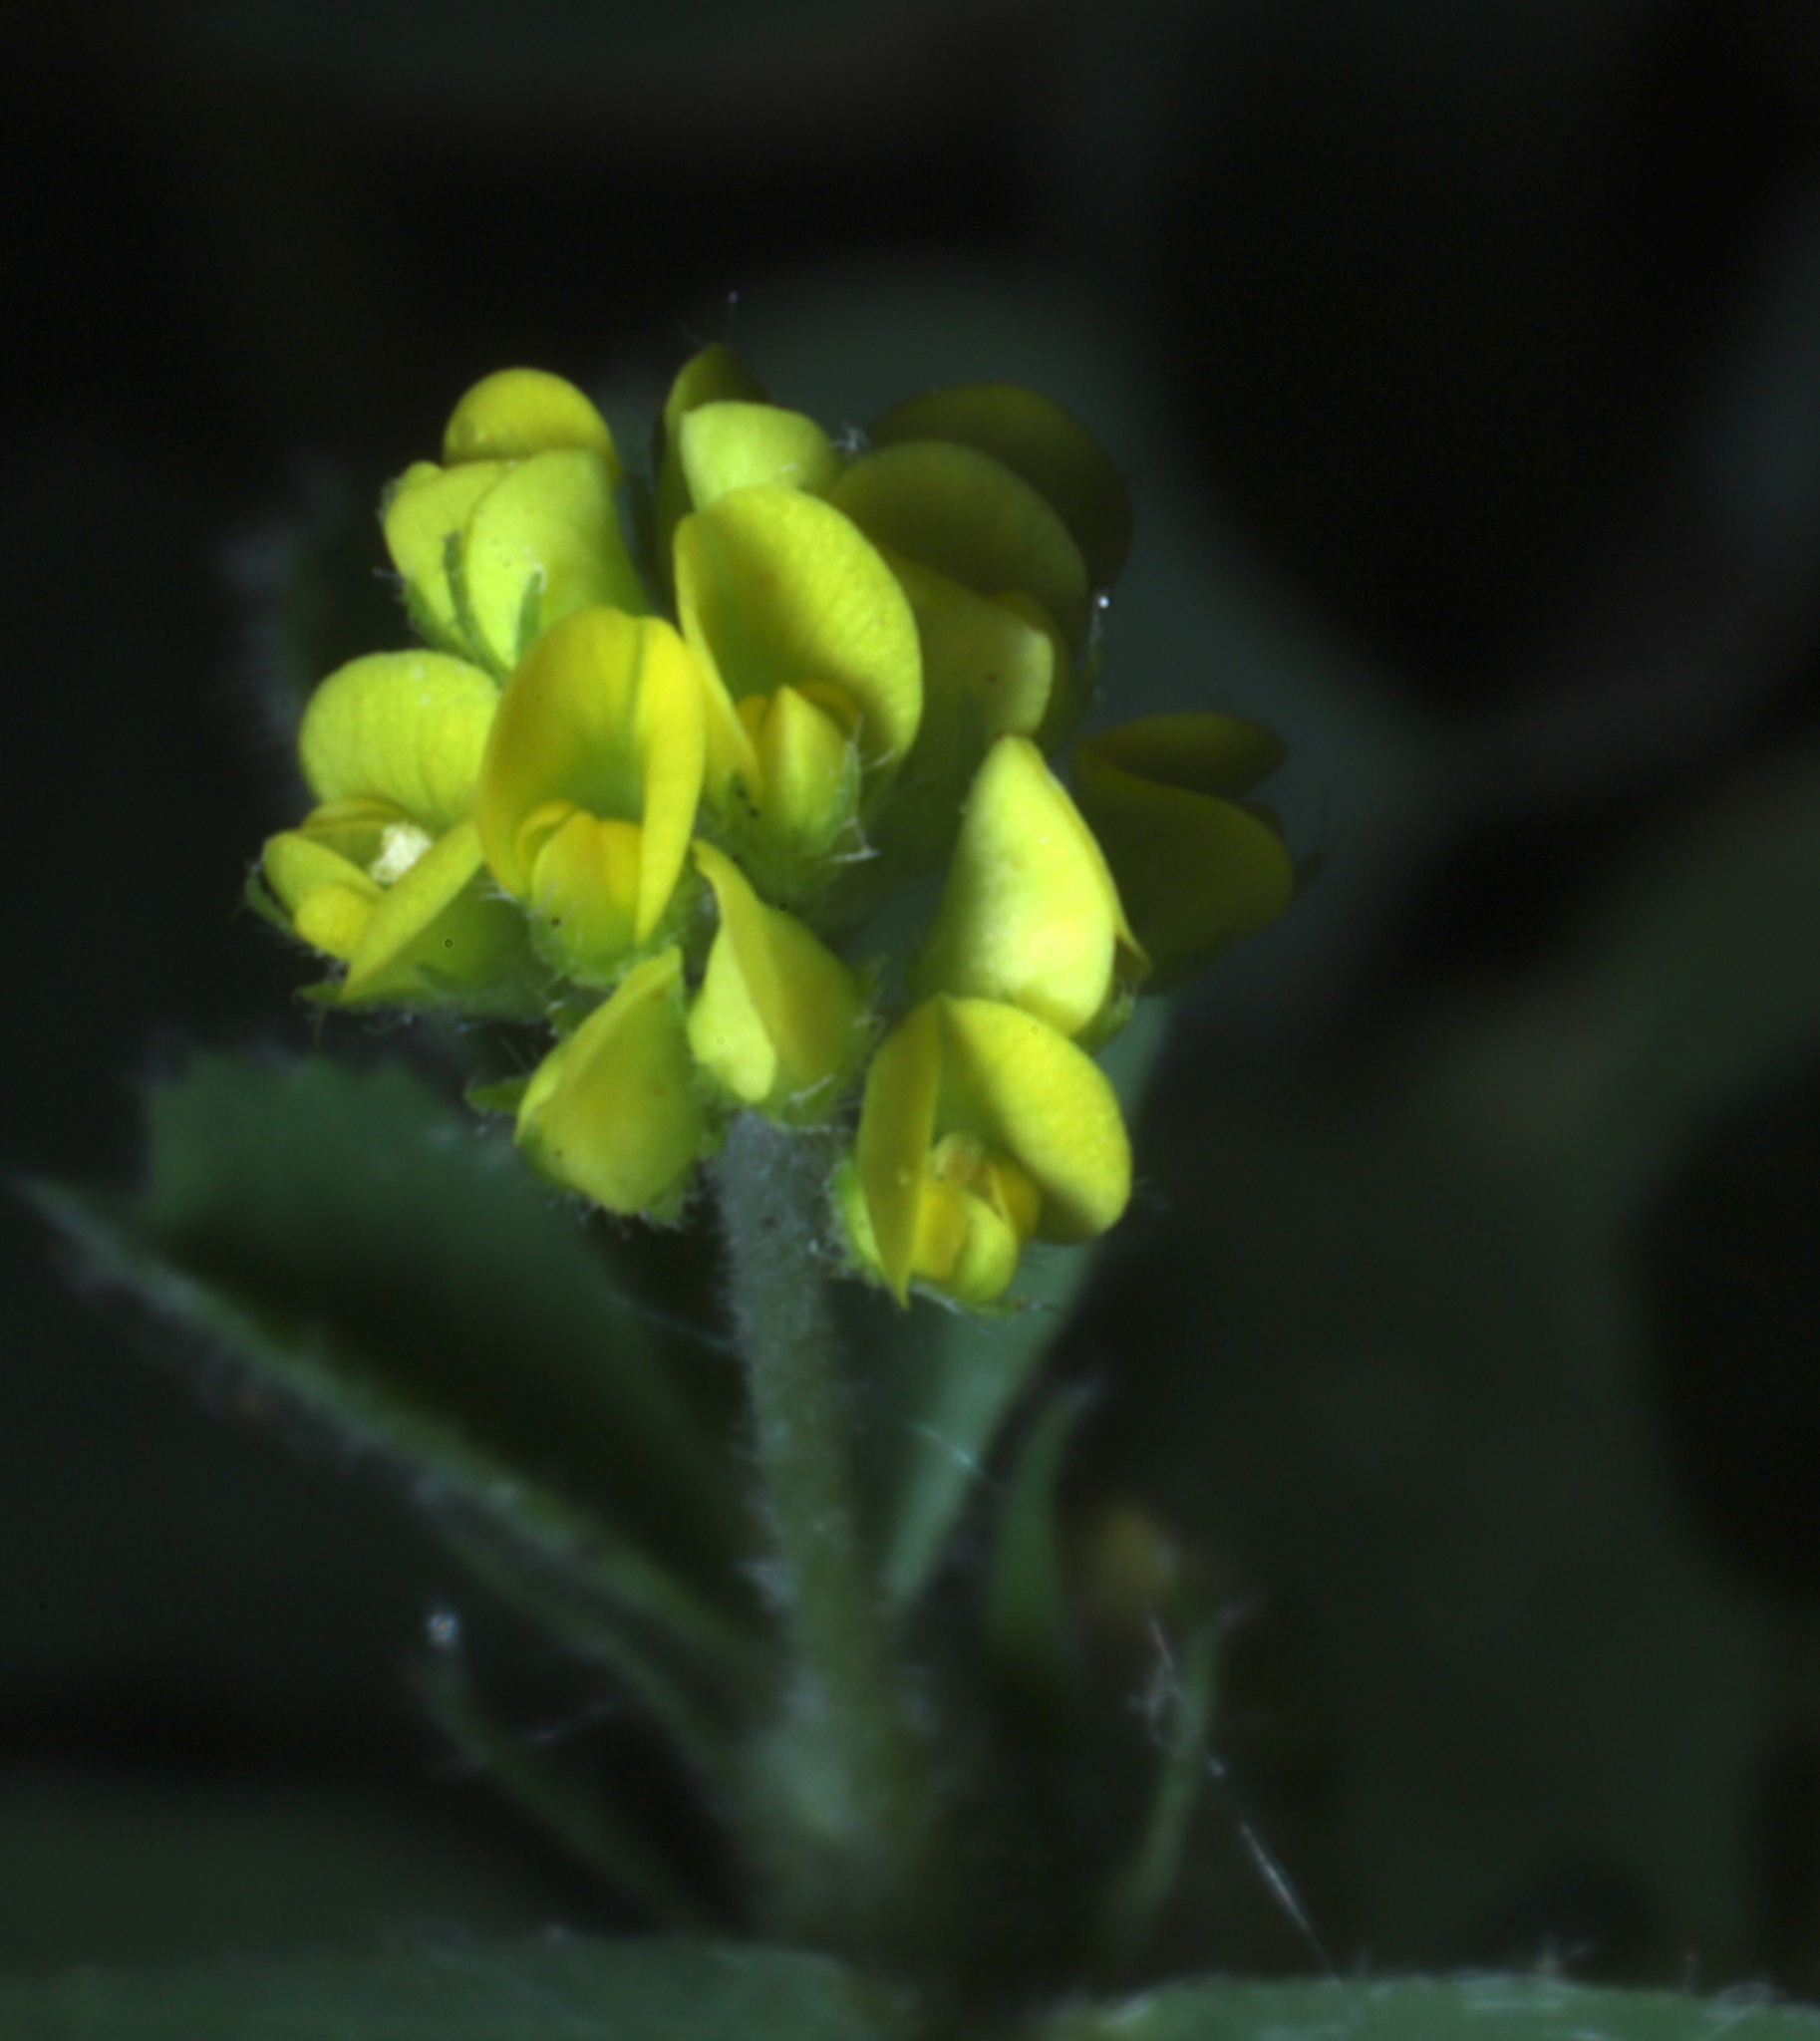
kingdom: Plantae
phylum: Tracheophyta
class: Magnoliopsida
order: Fabales
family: Fabaceae
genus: Medicago
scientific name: Medicago lupulina
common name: Black medick
